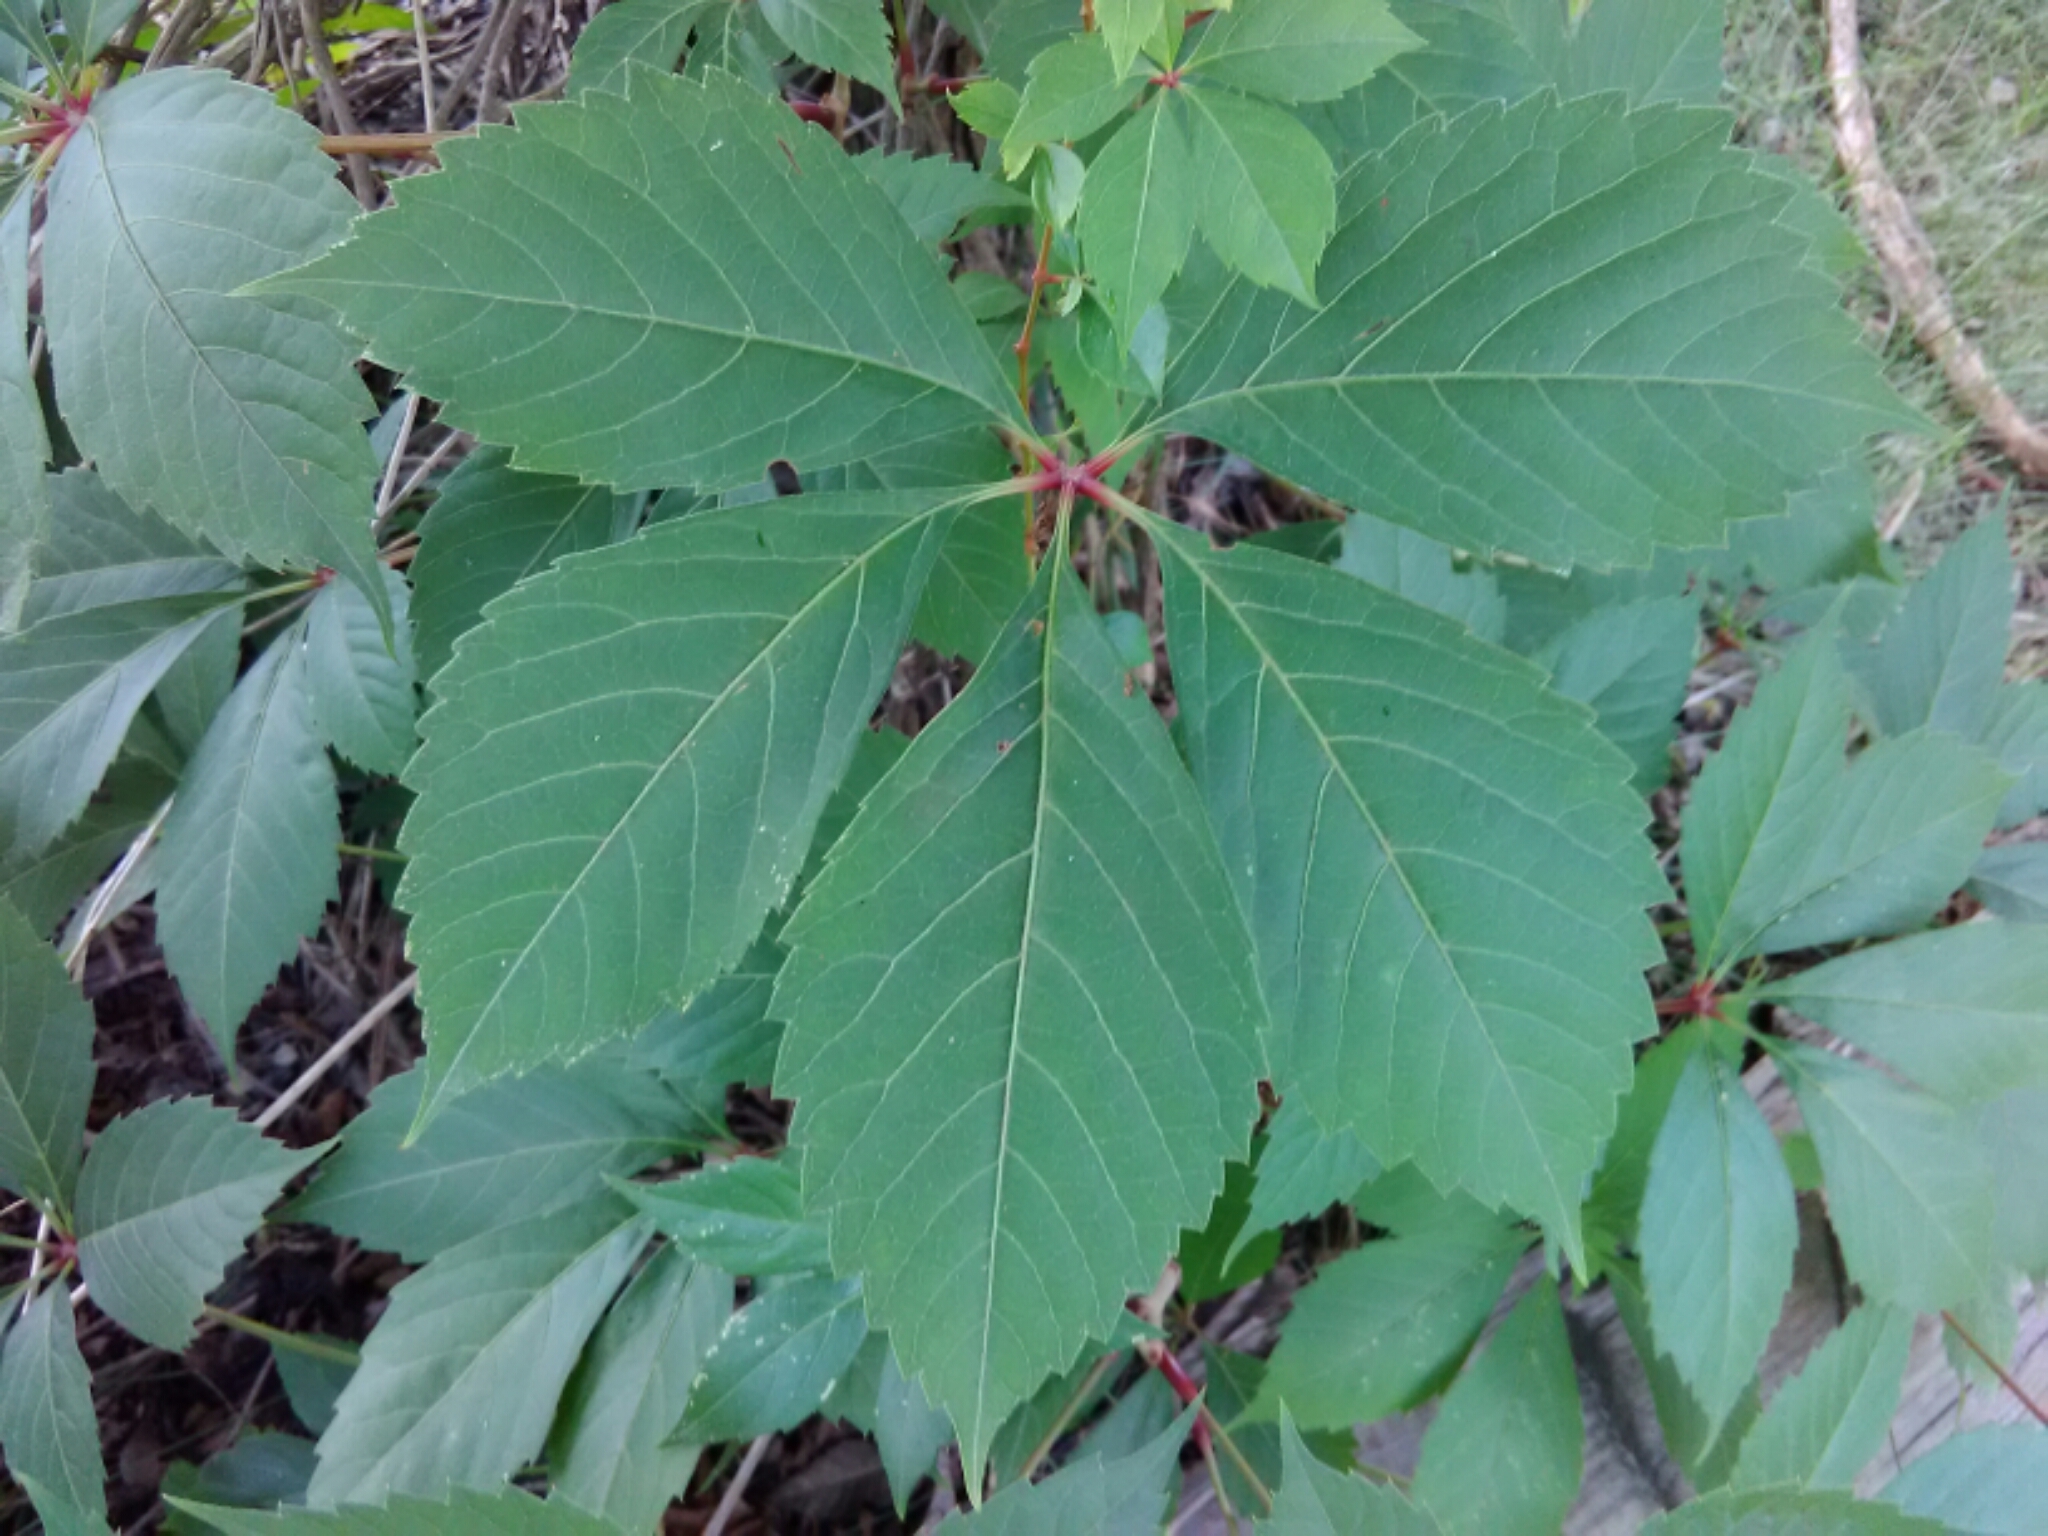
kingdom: Plantae
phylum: Tracheophyta
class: Magnoliopsida
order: Vitales
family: Vitaceae
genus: Parthenocissus
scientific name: Parthenocissus quinquefolia
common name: Virginia-creeper
